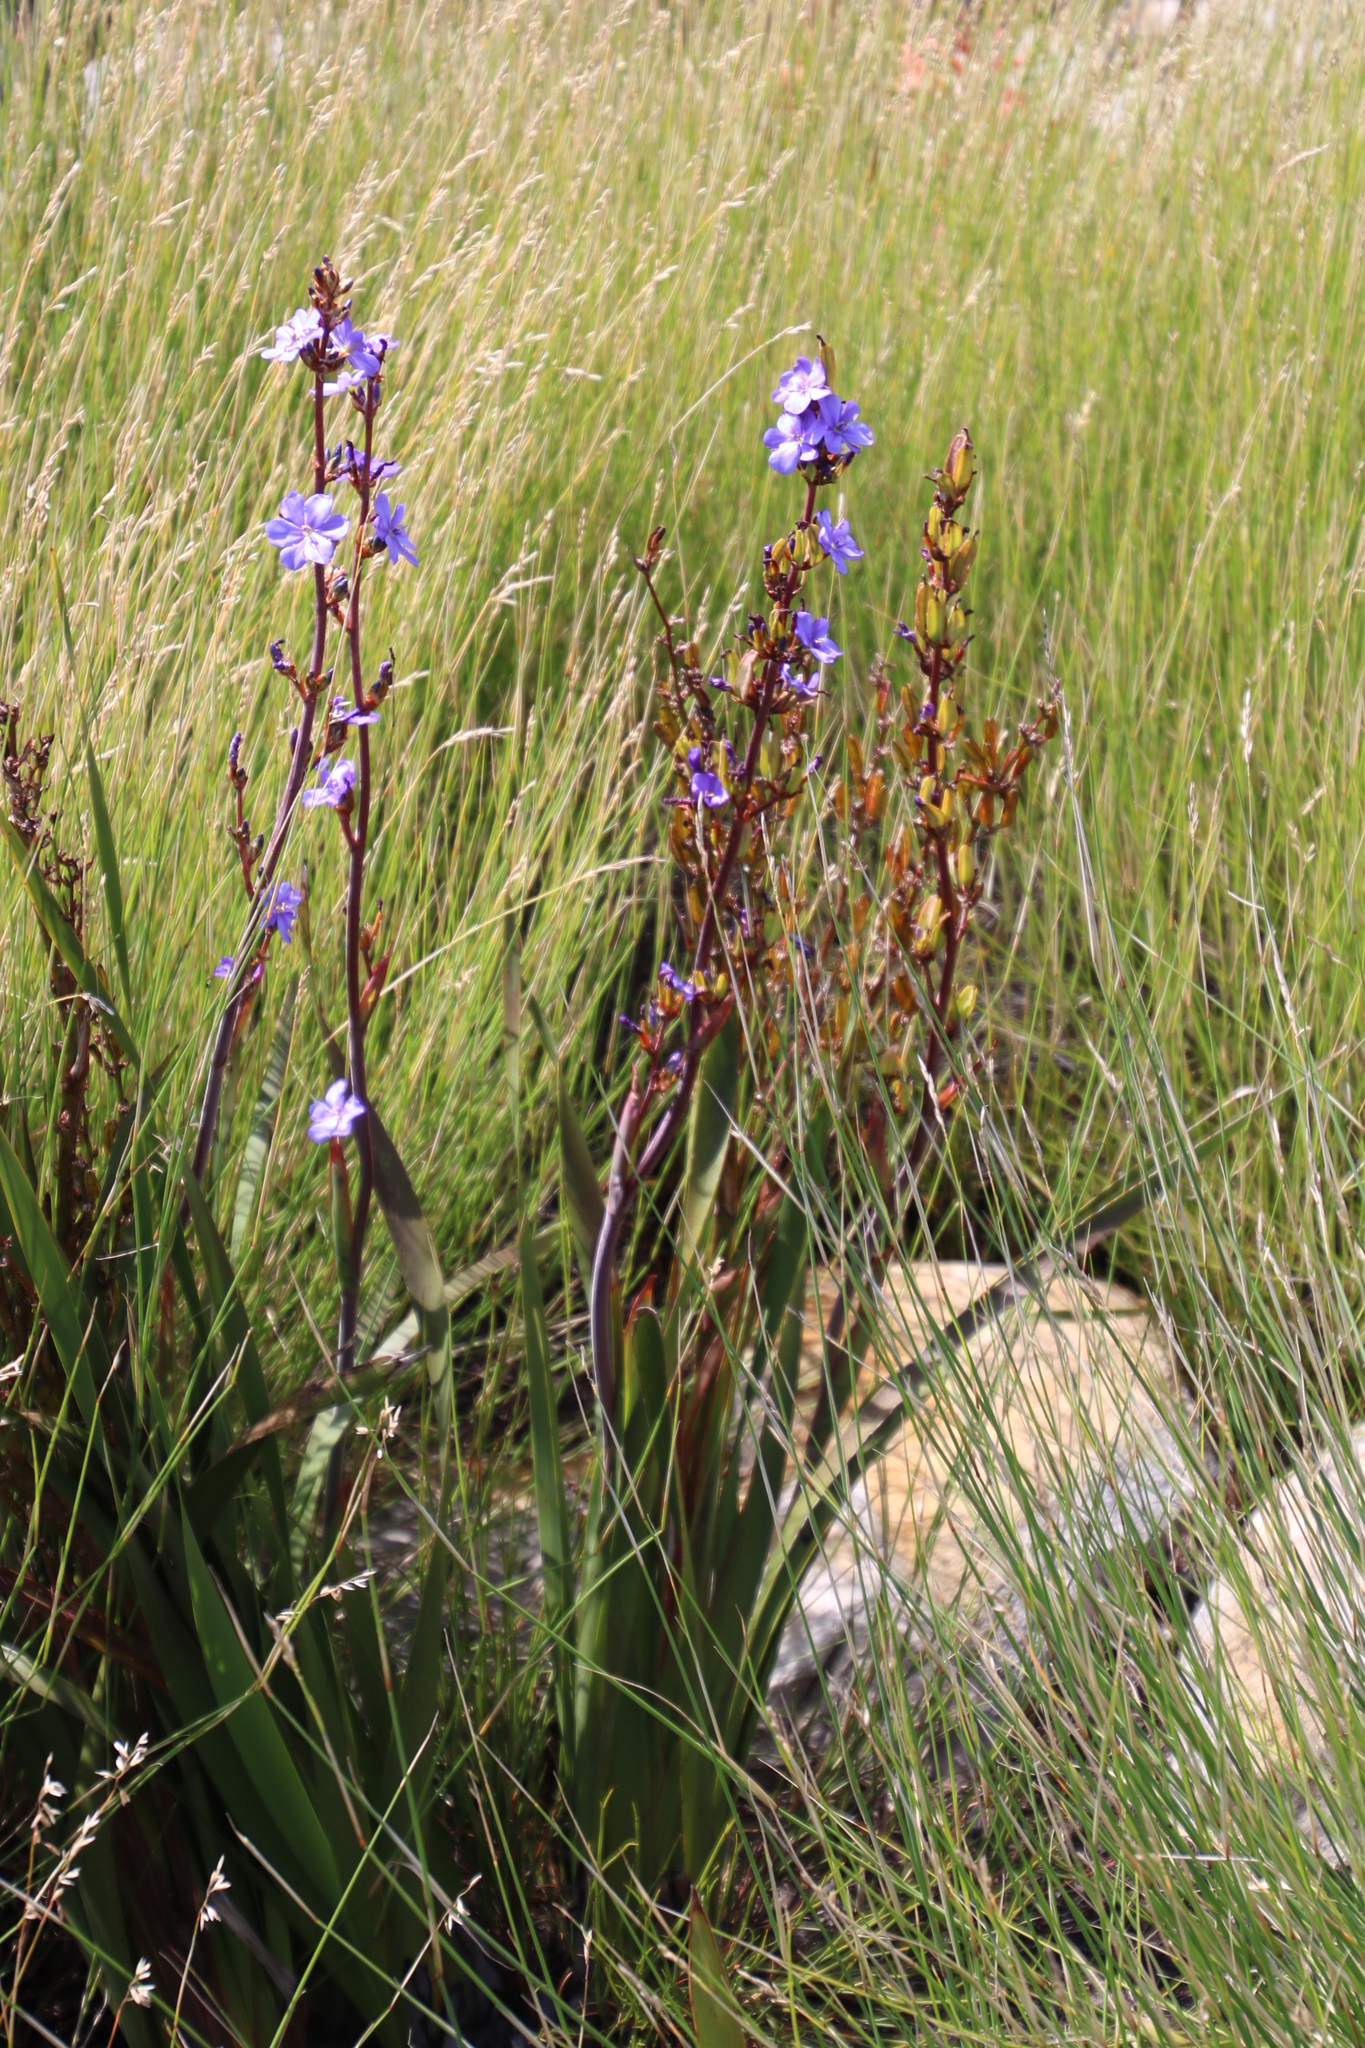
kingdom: Plantae
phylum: Tracheophyta
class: Liliopsida
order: Asparagales
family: Iridaceae
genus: Aristea
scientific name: Aristea bakeri
